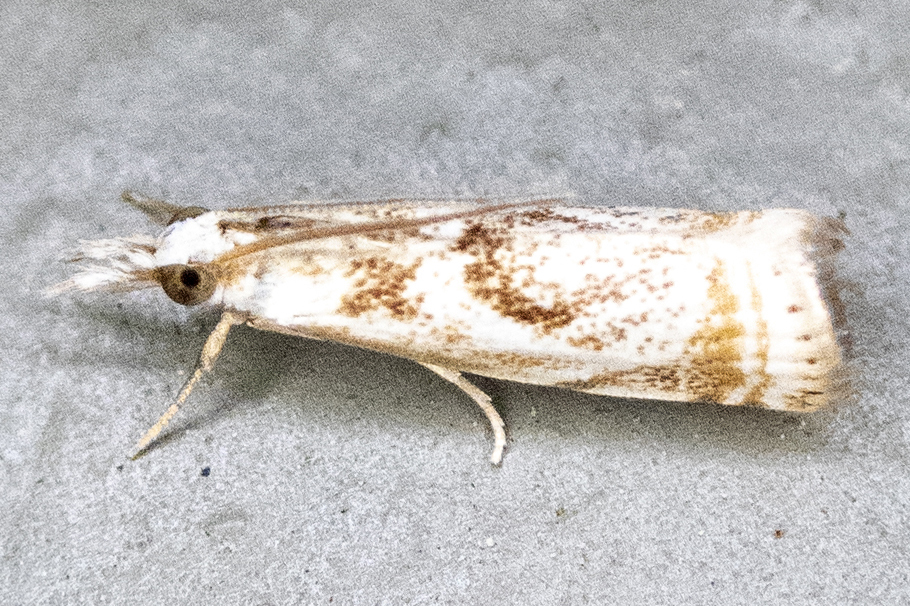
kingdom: Animalia
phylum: Arthropoda
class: Insecta
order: Lepidoptera
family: Crambidae
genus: Microcrambus
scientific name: Microcrambus elegans
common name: Elegant grass-veneer
